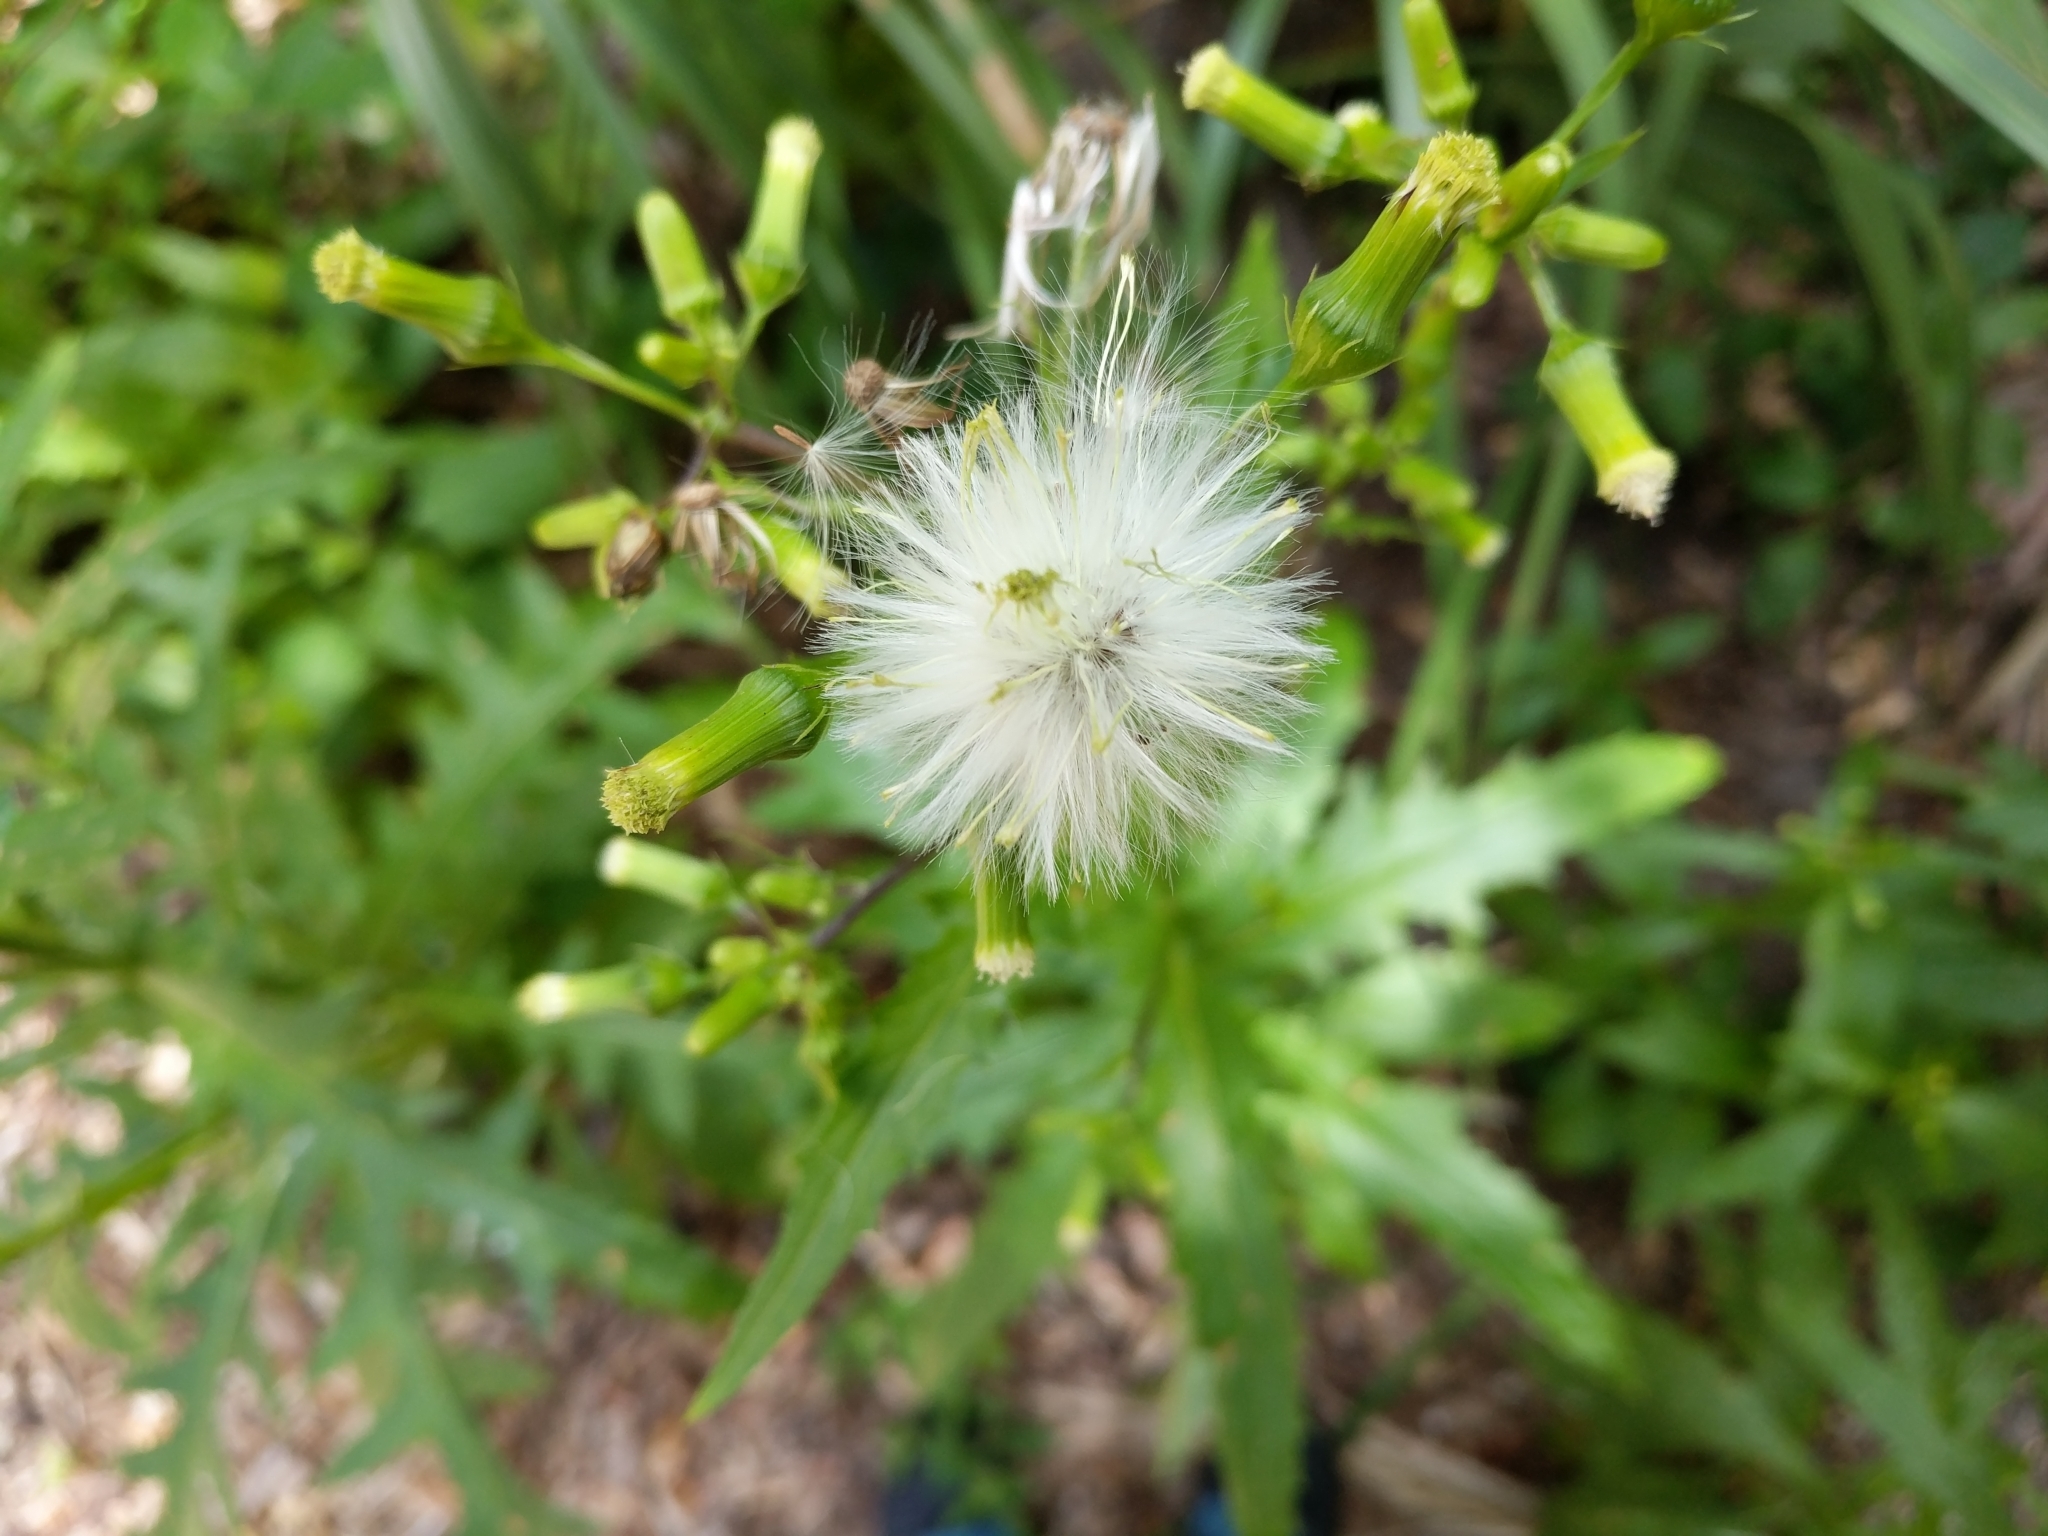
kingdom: Plantae
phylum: Tracheophyta
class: Magnoliopsida
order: Asterales
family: Asteraceae
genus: Erechtites
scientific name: Erechtites hieraciifolius
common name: American burnweed
